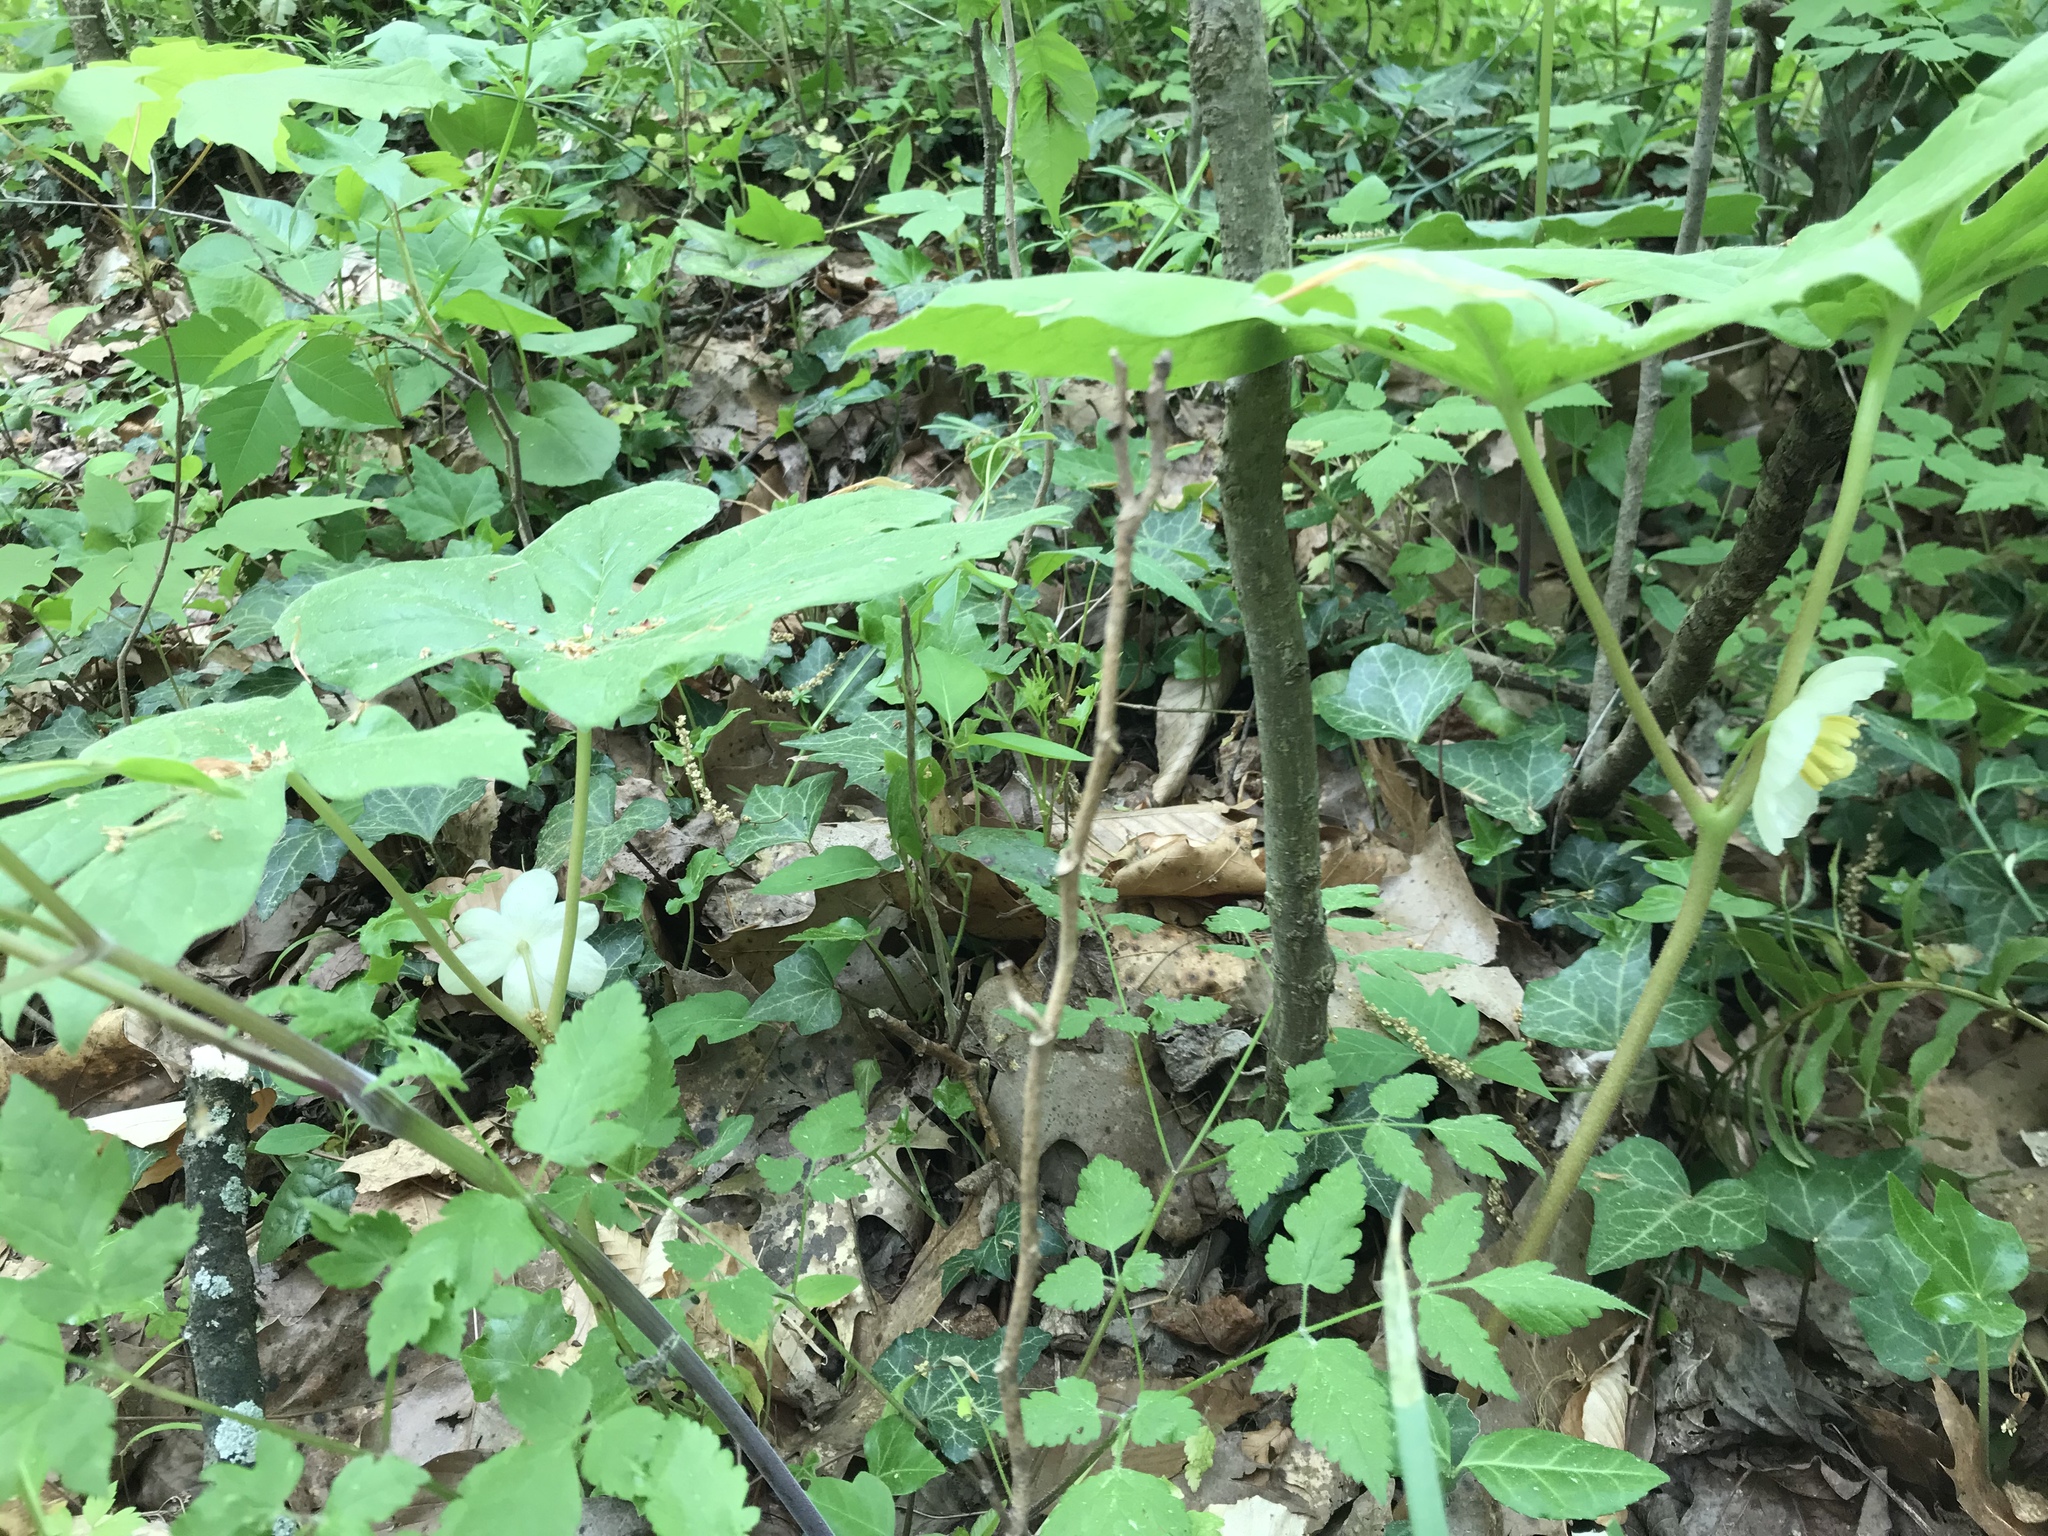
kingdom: Plantae
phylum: Tracheophyta
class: Magnoliopsida
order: Ranunculales
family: Berberidaceae
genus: Podophyllum
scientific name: Podophyllum peltatum
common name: Wild mandrake
